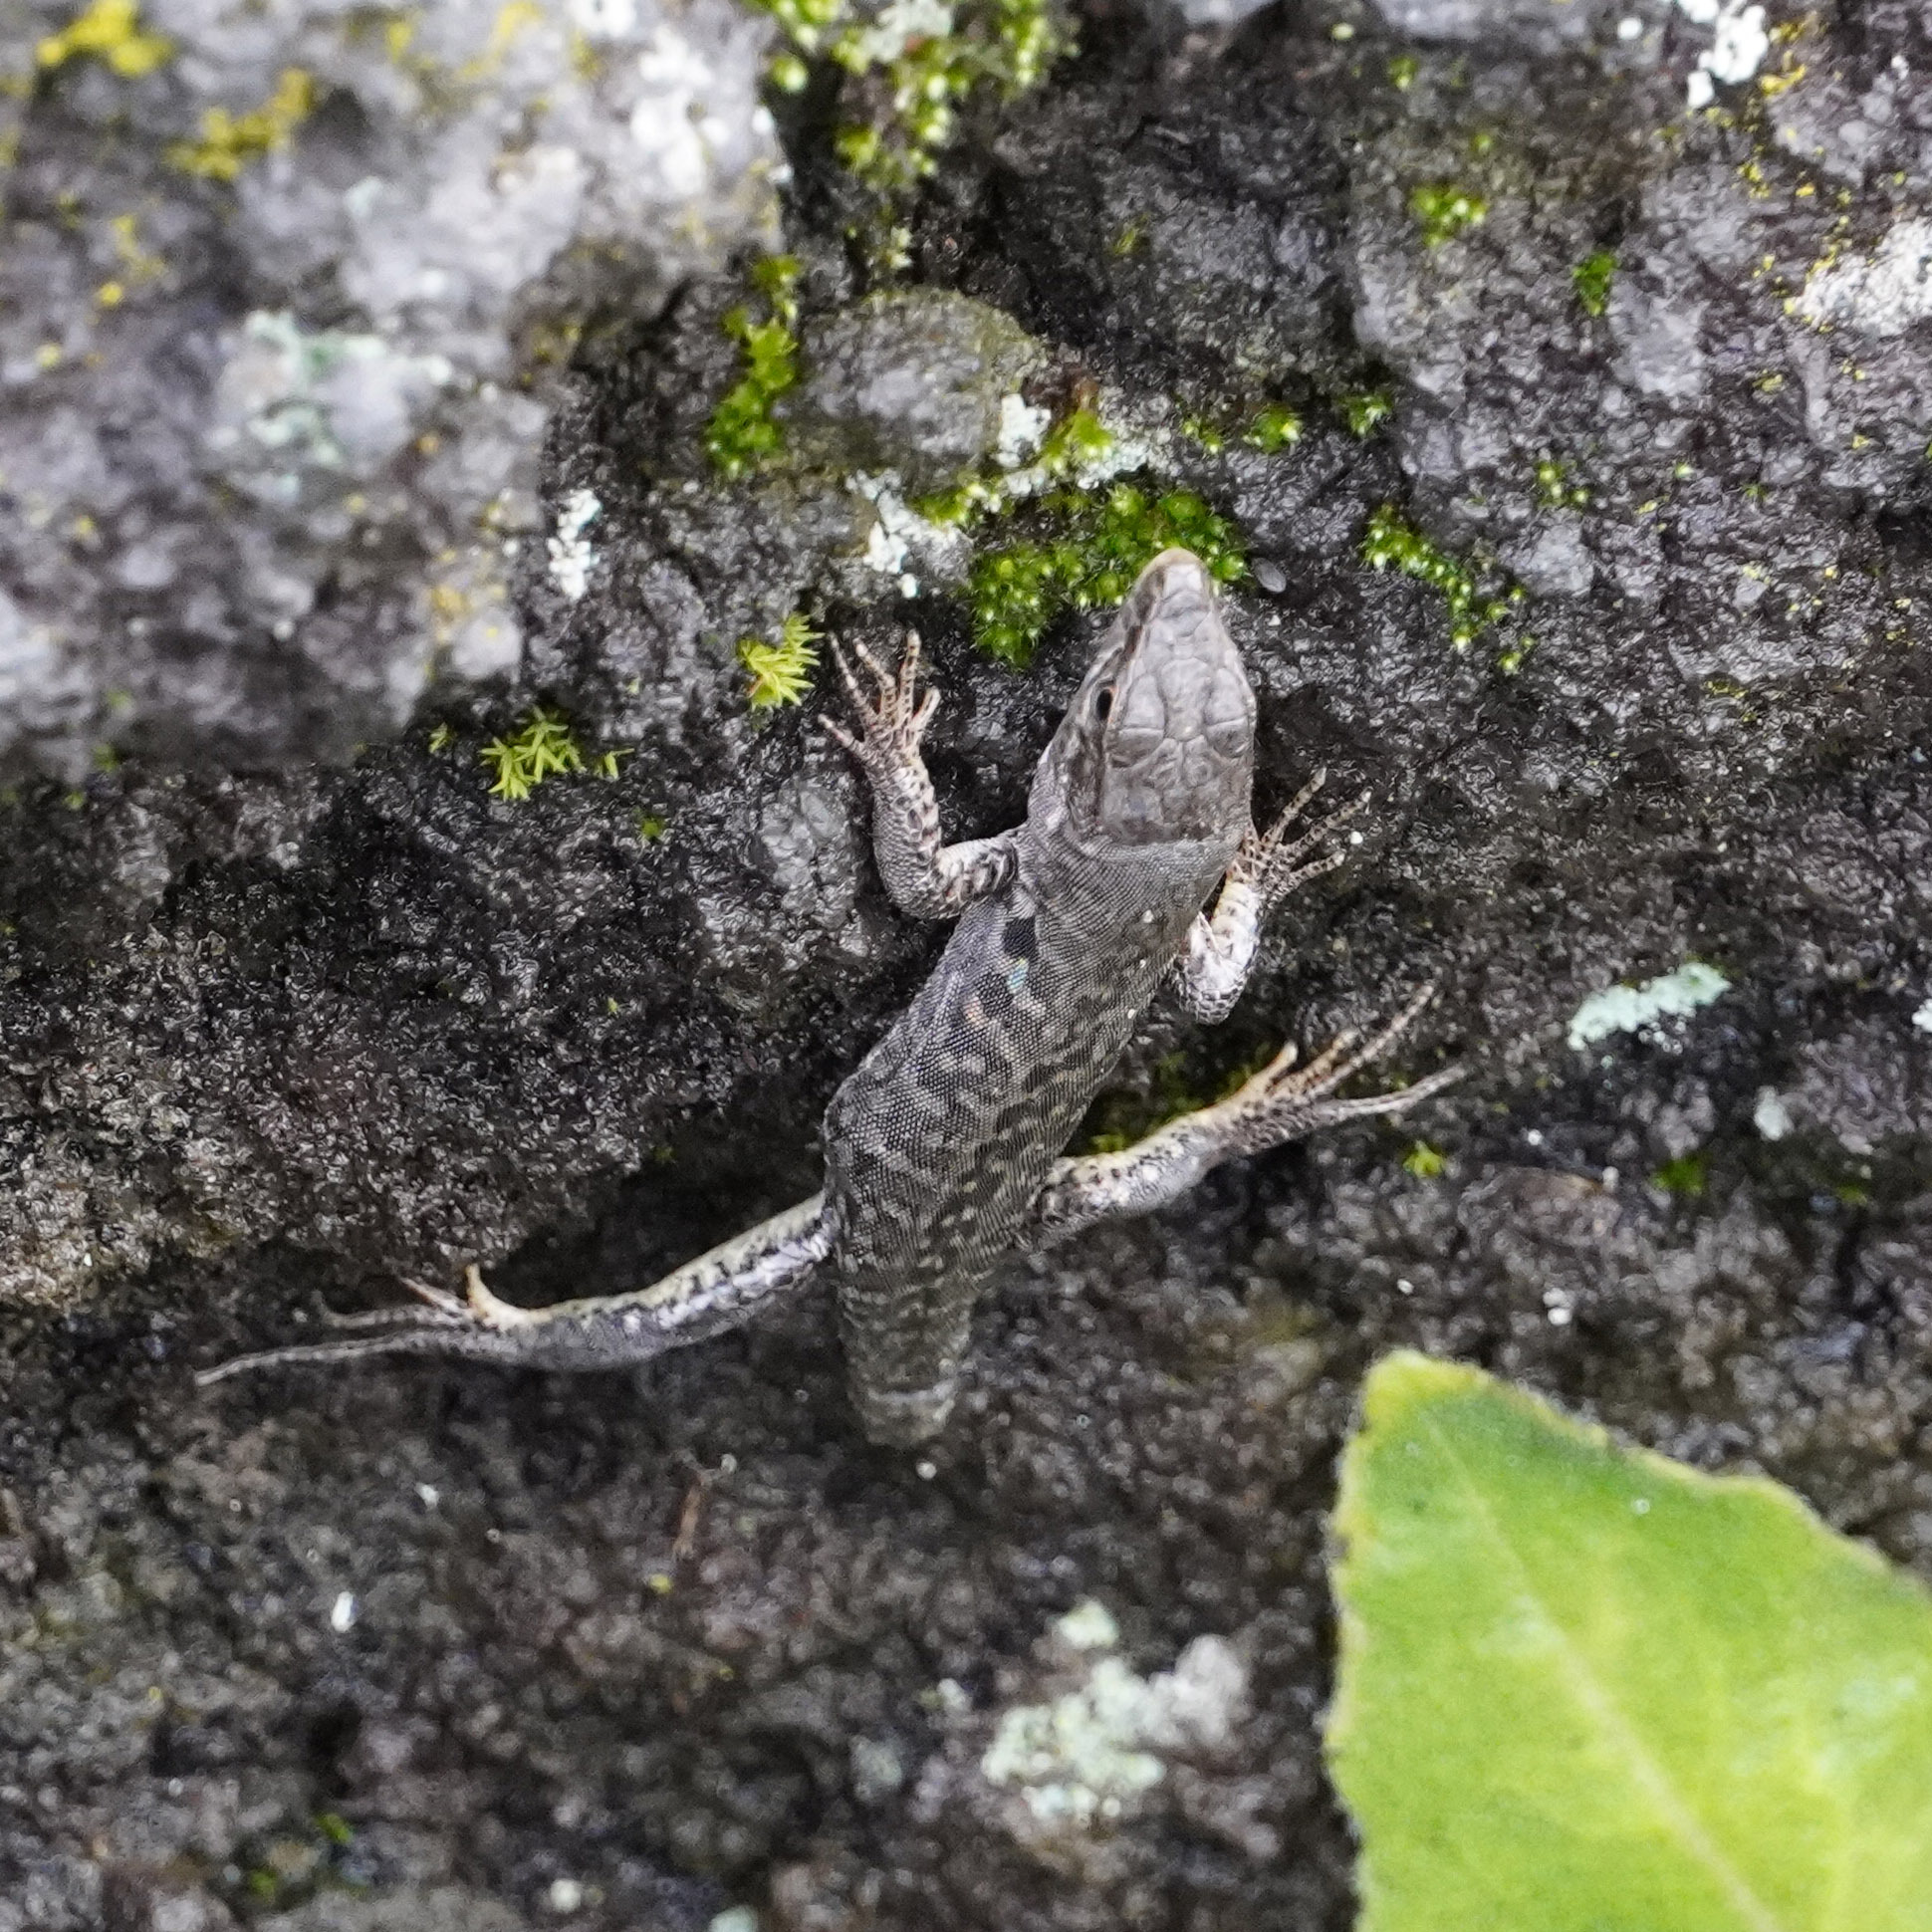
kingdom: Animalia
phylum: Chordata
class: Squamata
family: Lacertidae
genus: Podarcis
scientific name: Podarcis siculus
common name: Italian wall lizard
